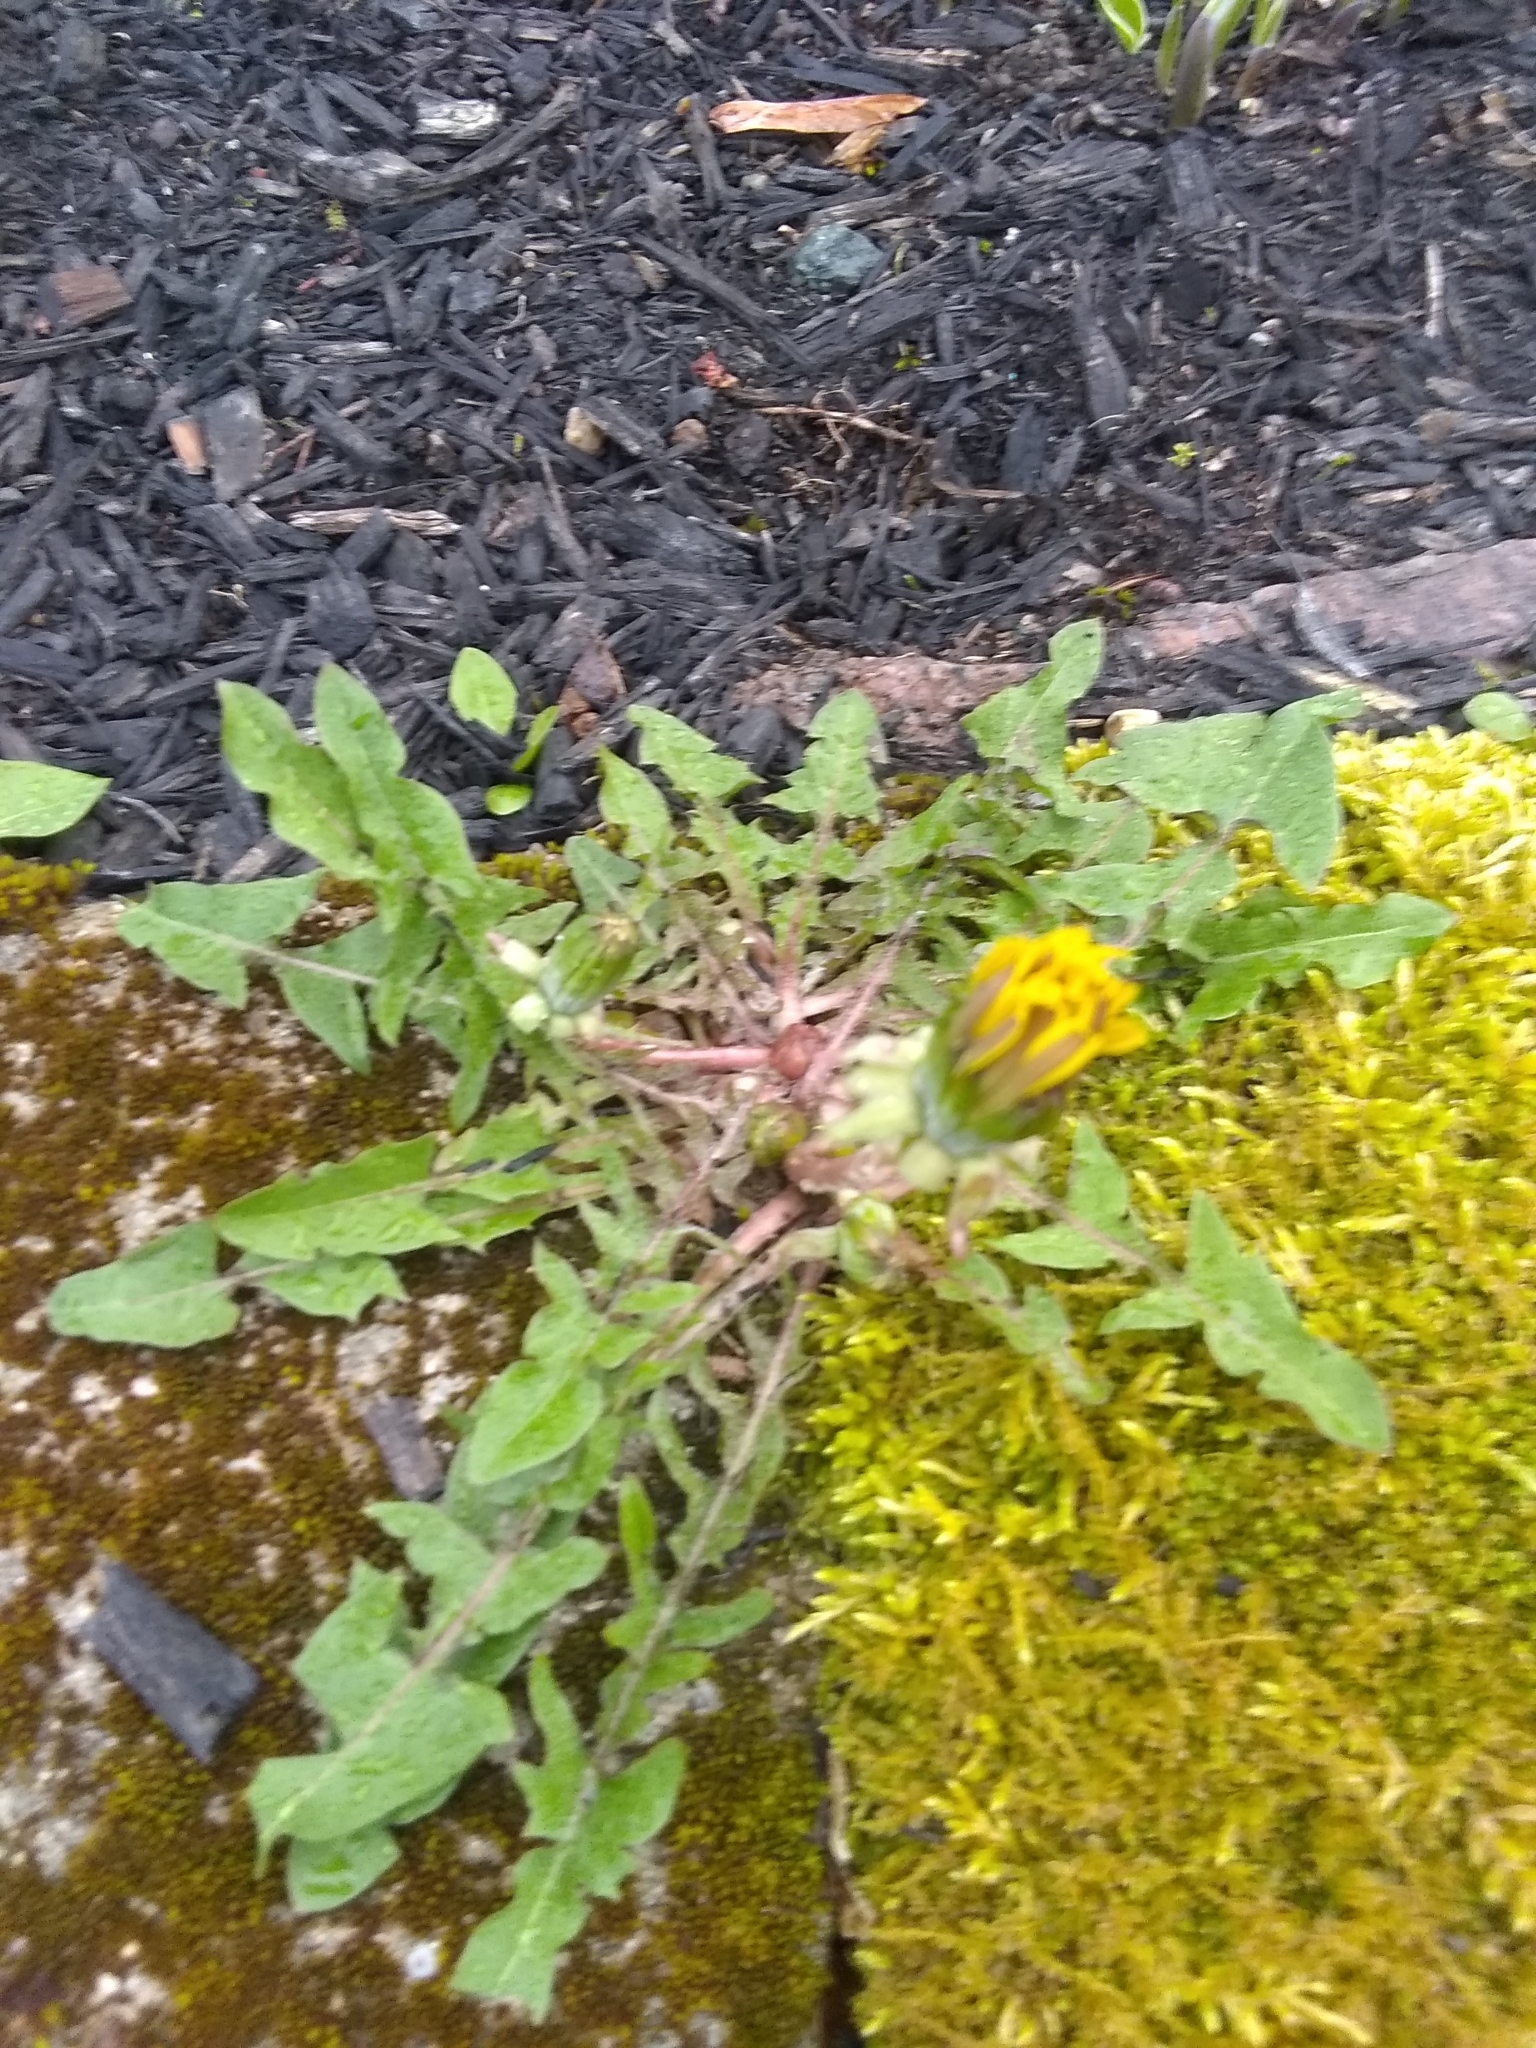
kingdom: Plantae
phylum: Tracheophyta
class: Magnoliopsida
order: Asterales
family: Asteraceae
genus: Taraxacum
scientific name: Taraxacum
